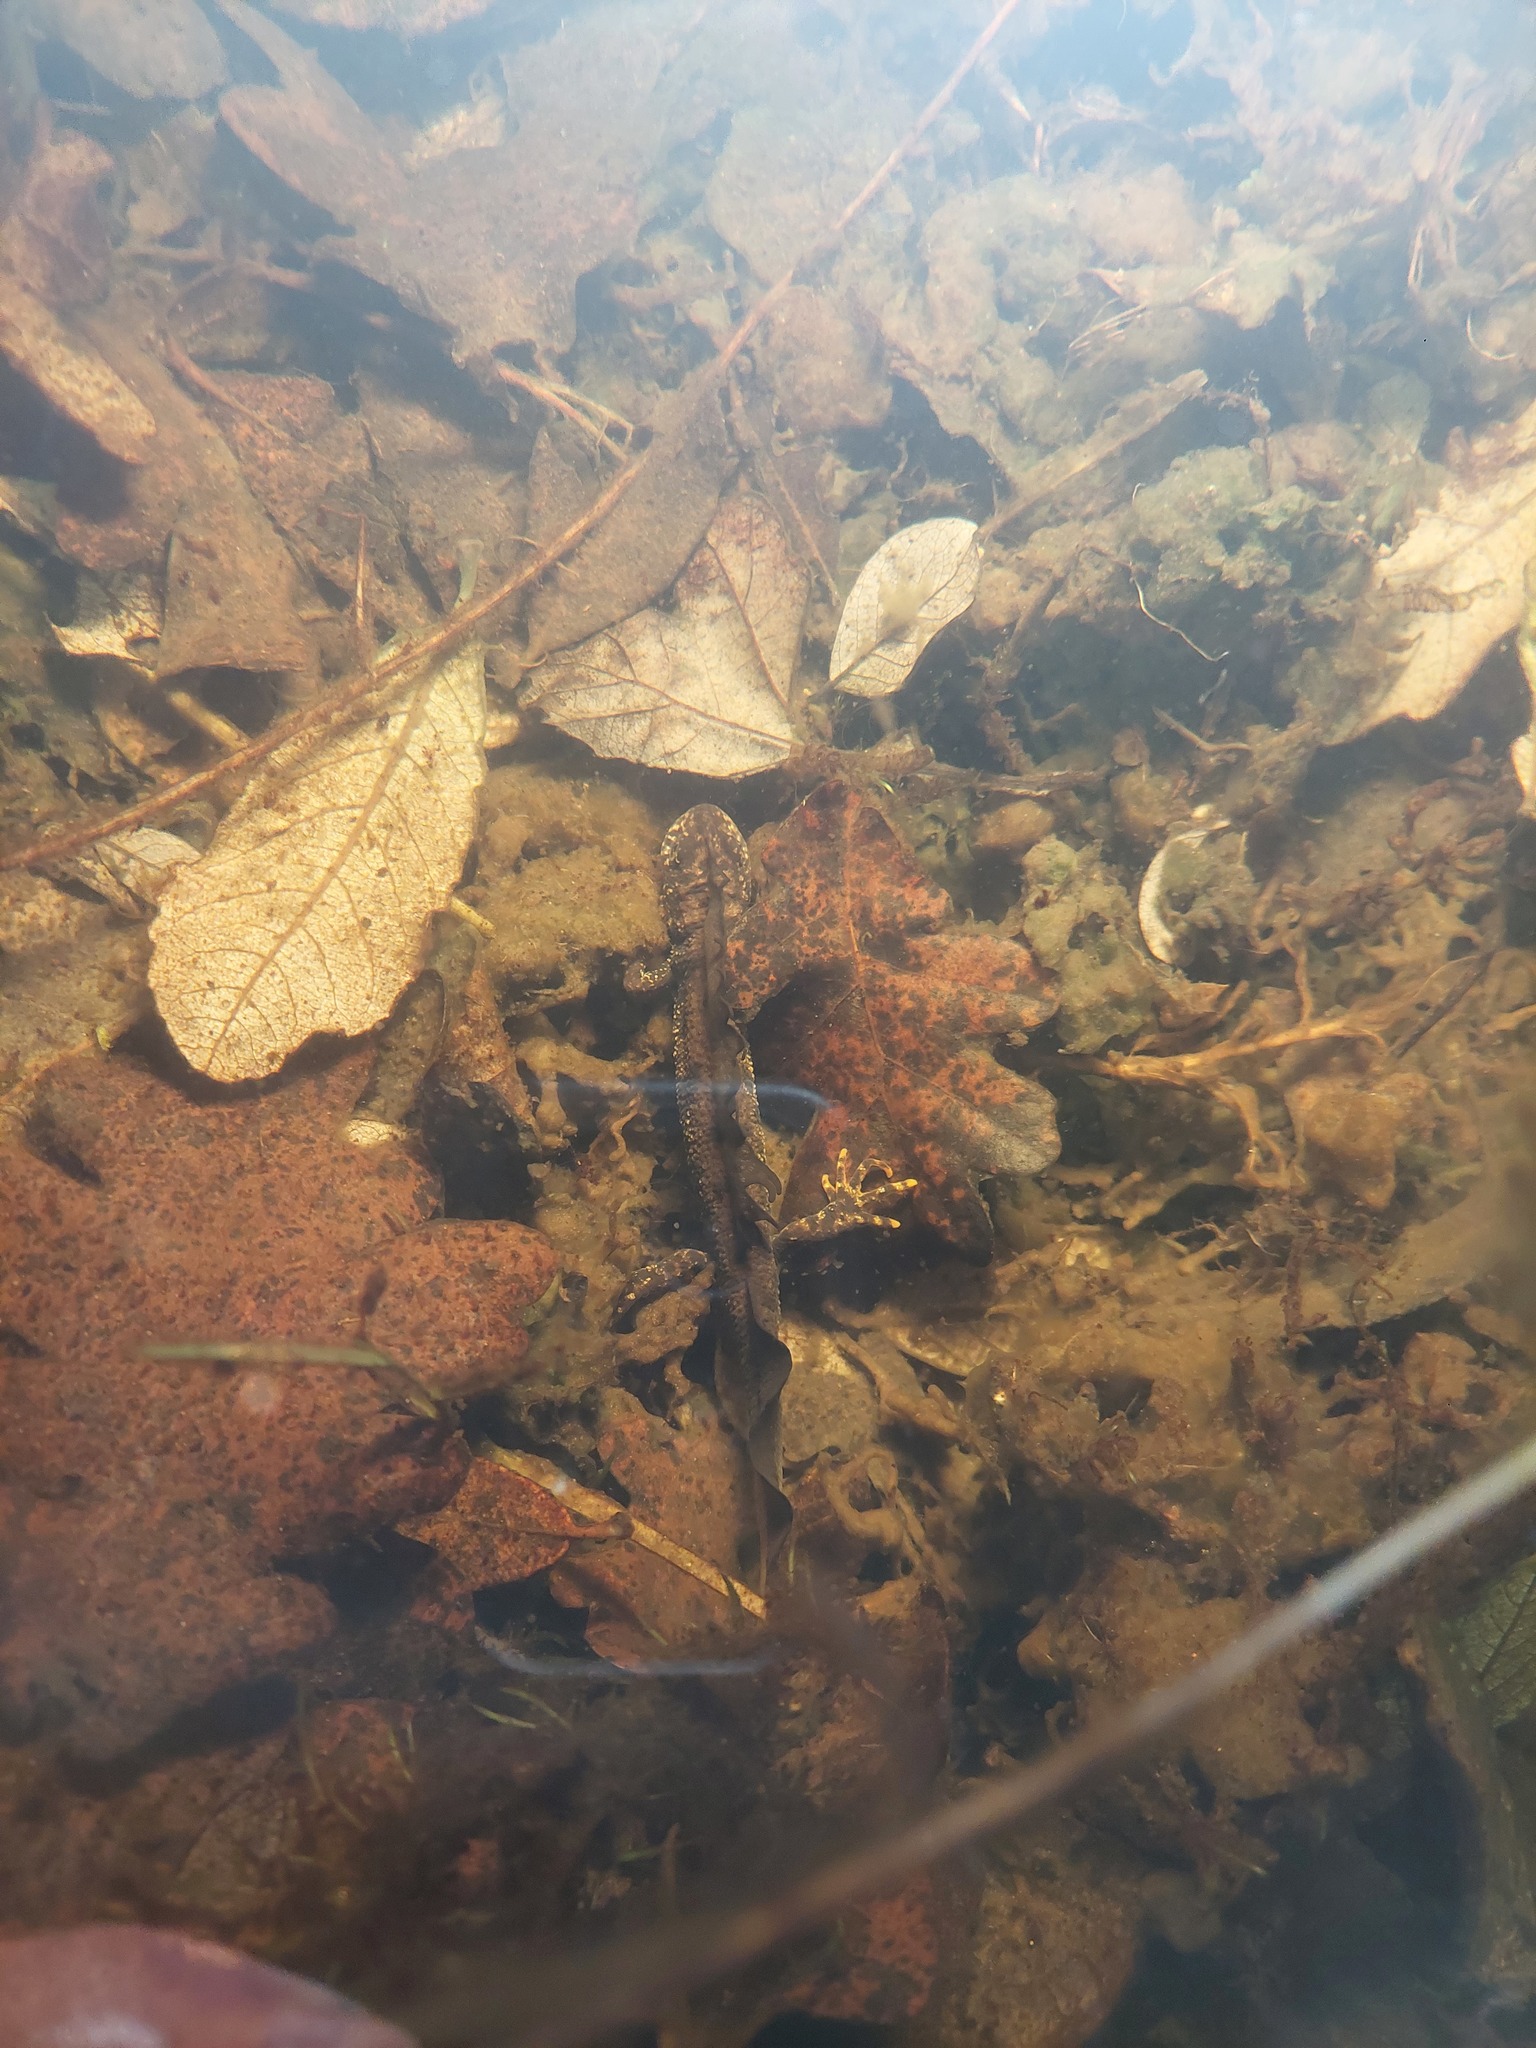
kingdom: Animalia
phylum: Chordata
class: Amphibia
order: Caudata
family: Salamandridae
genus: Triturus
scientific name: Triturus cristatus
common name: Crested newt
